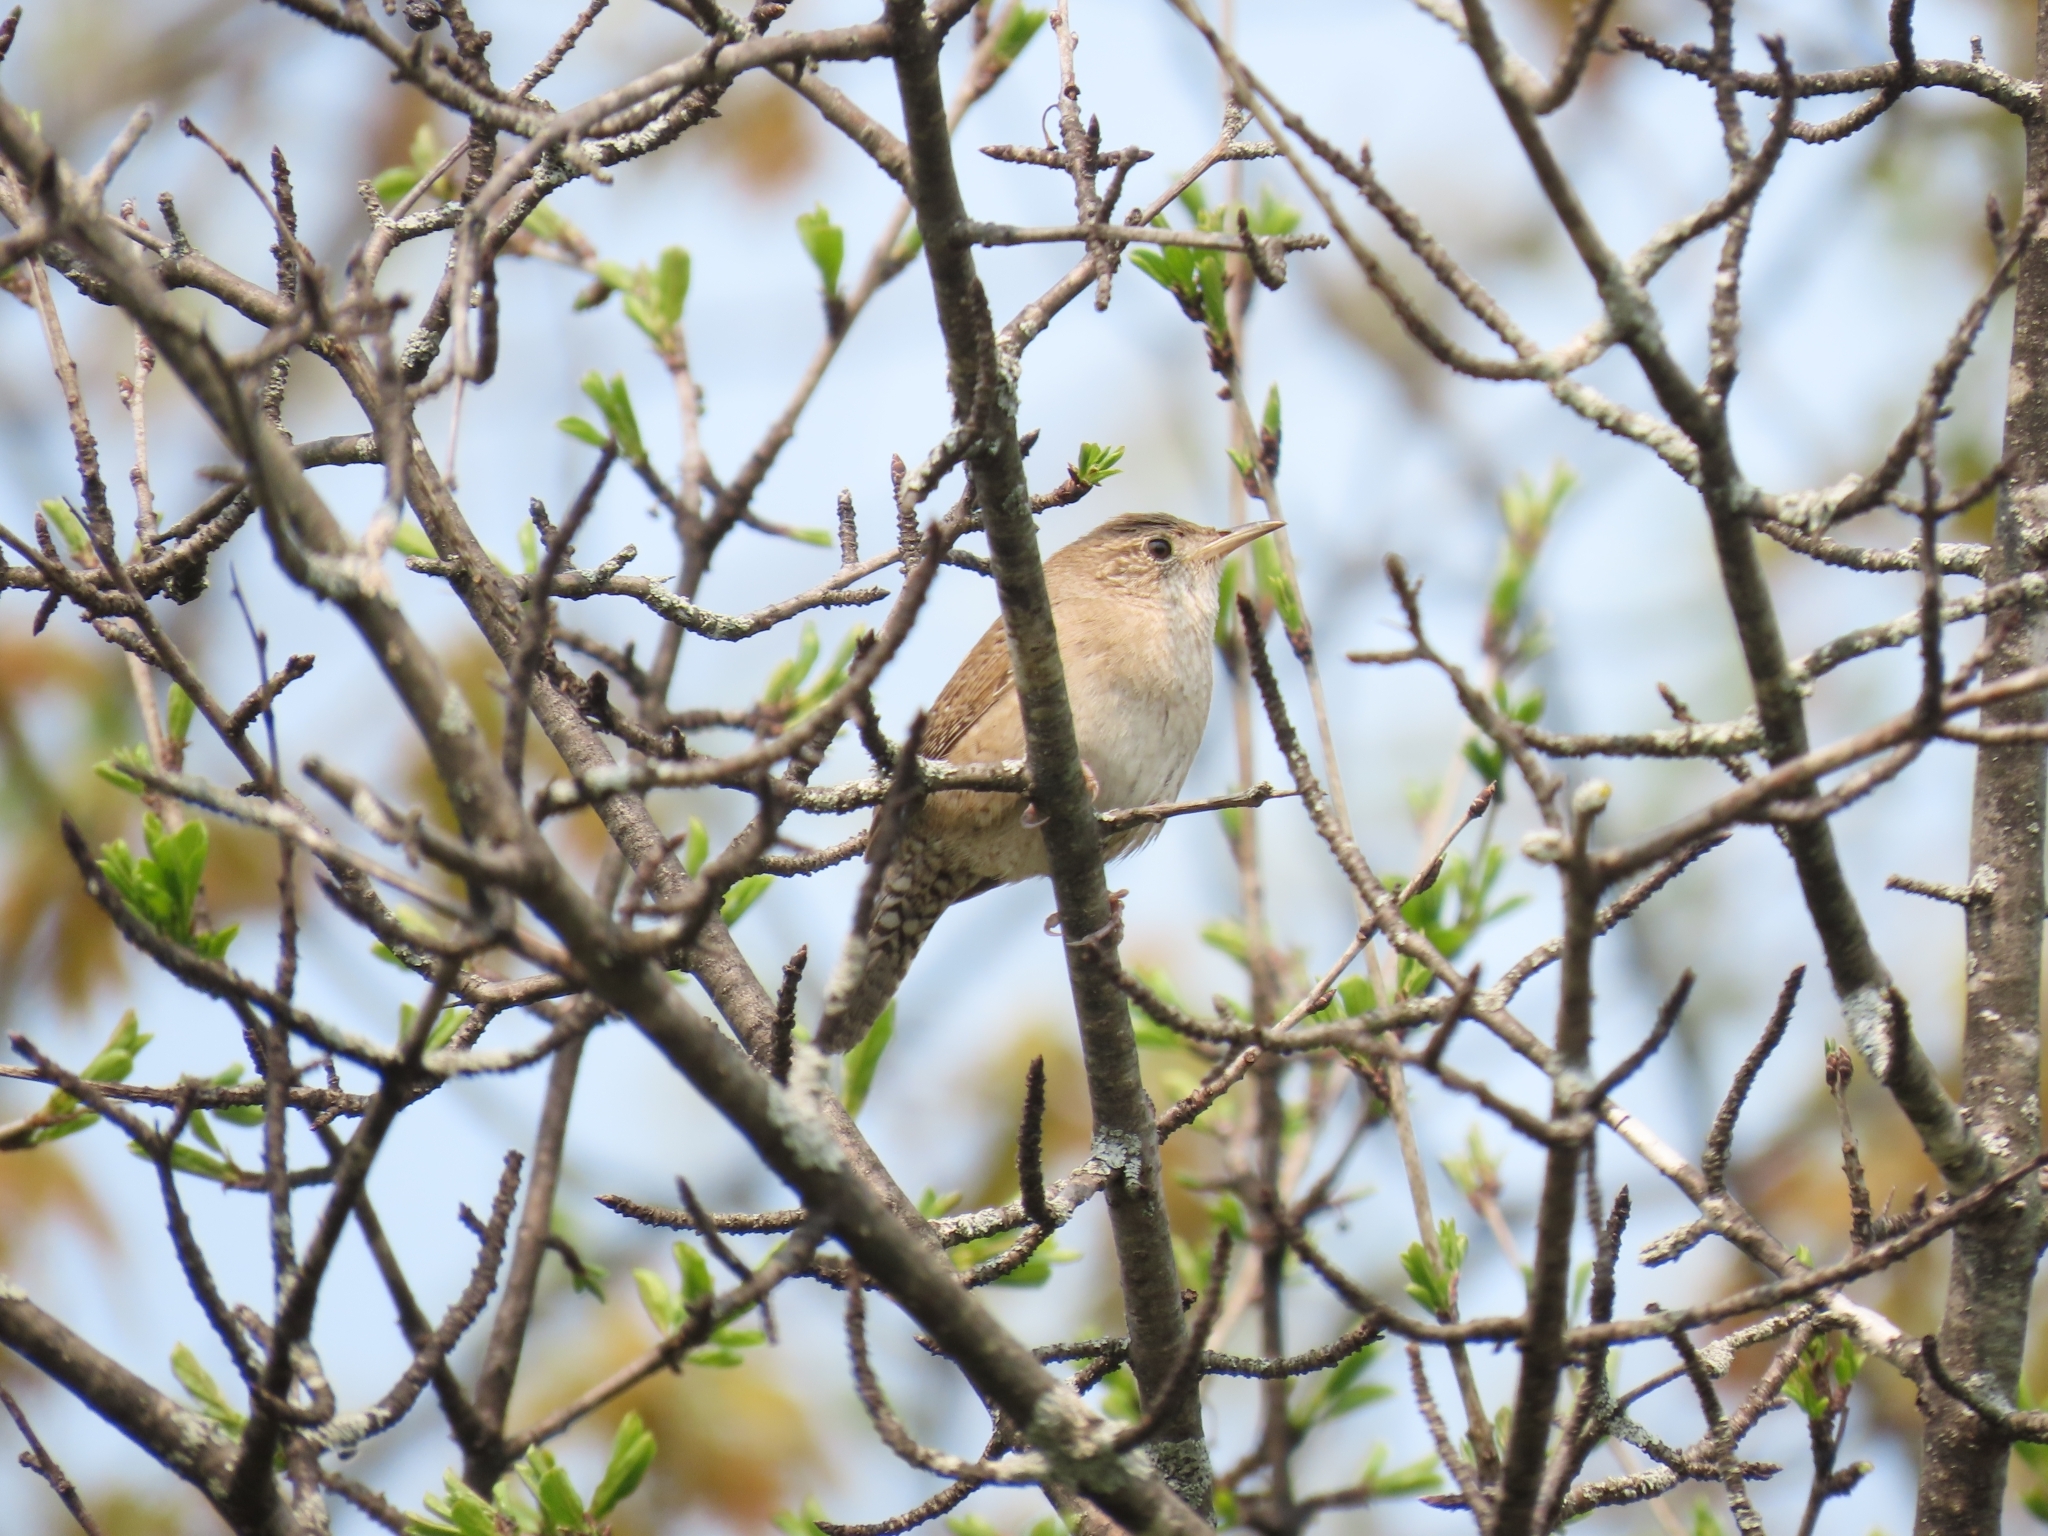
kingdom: Animalia
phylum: Chordata
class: Aves
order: Passeriformes
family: Troglodytidae
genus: Troglodytes
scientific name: Troglodytes aedon
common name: House wren
